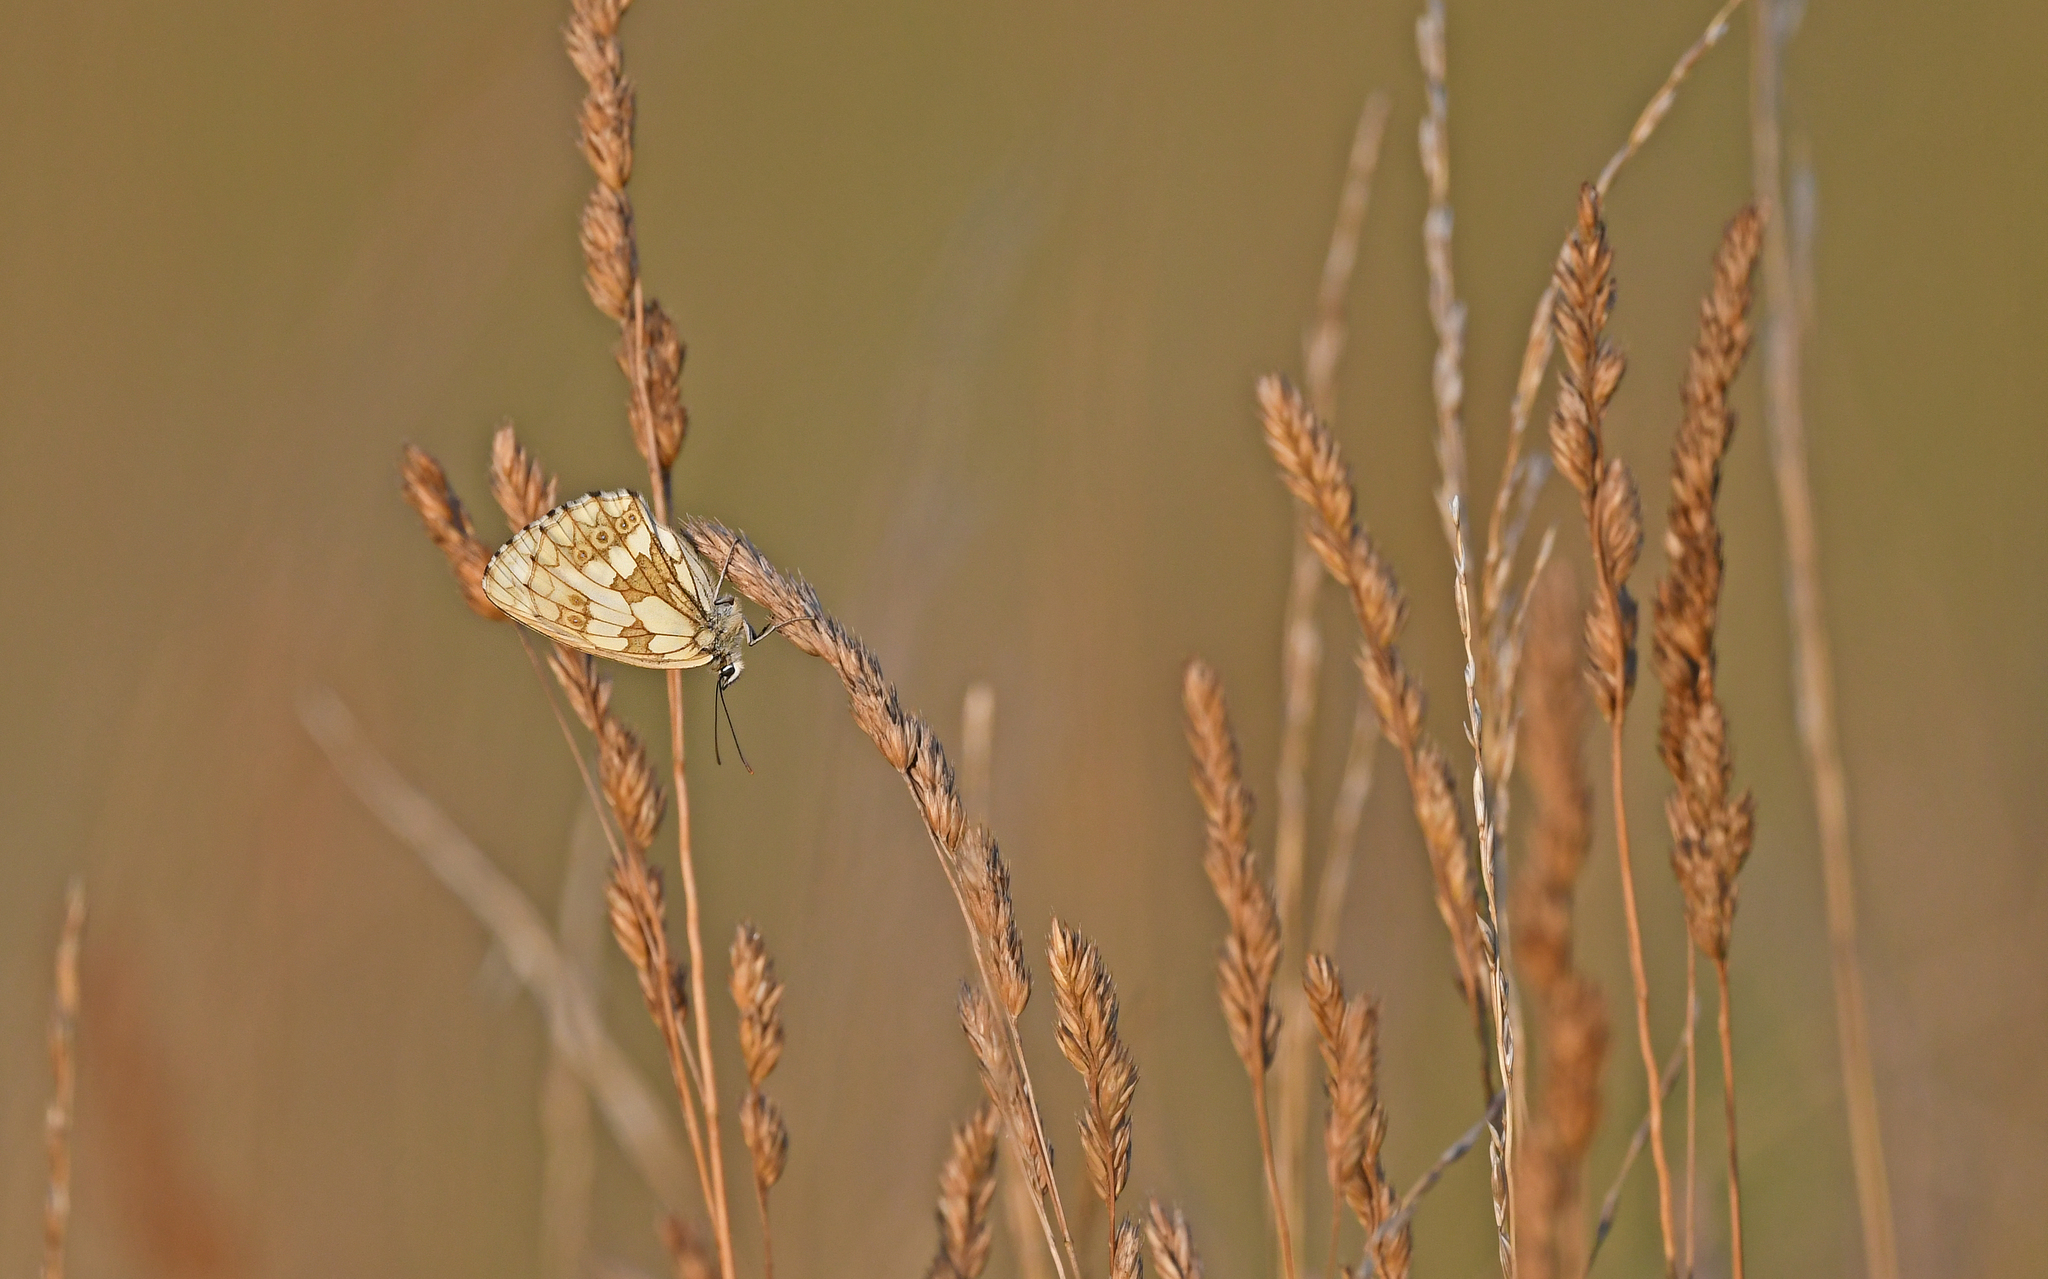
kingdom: Animalia
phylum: Arthropoda
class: Insecta
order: Lepidoptera
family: Nymphalidae
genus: Melanargia
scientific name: Melanargia galathea
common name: Marbled white
